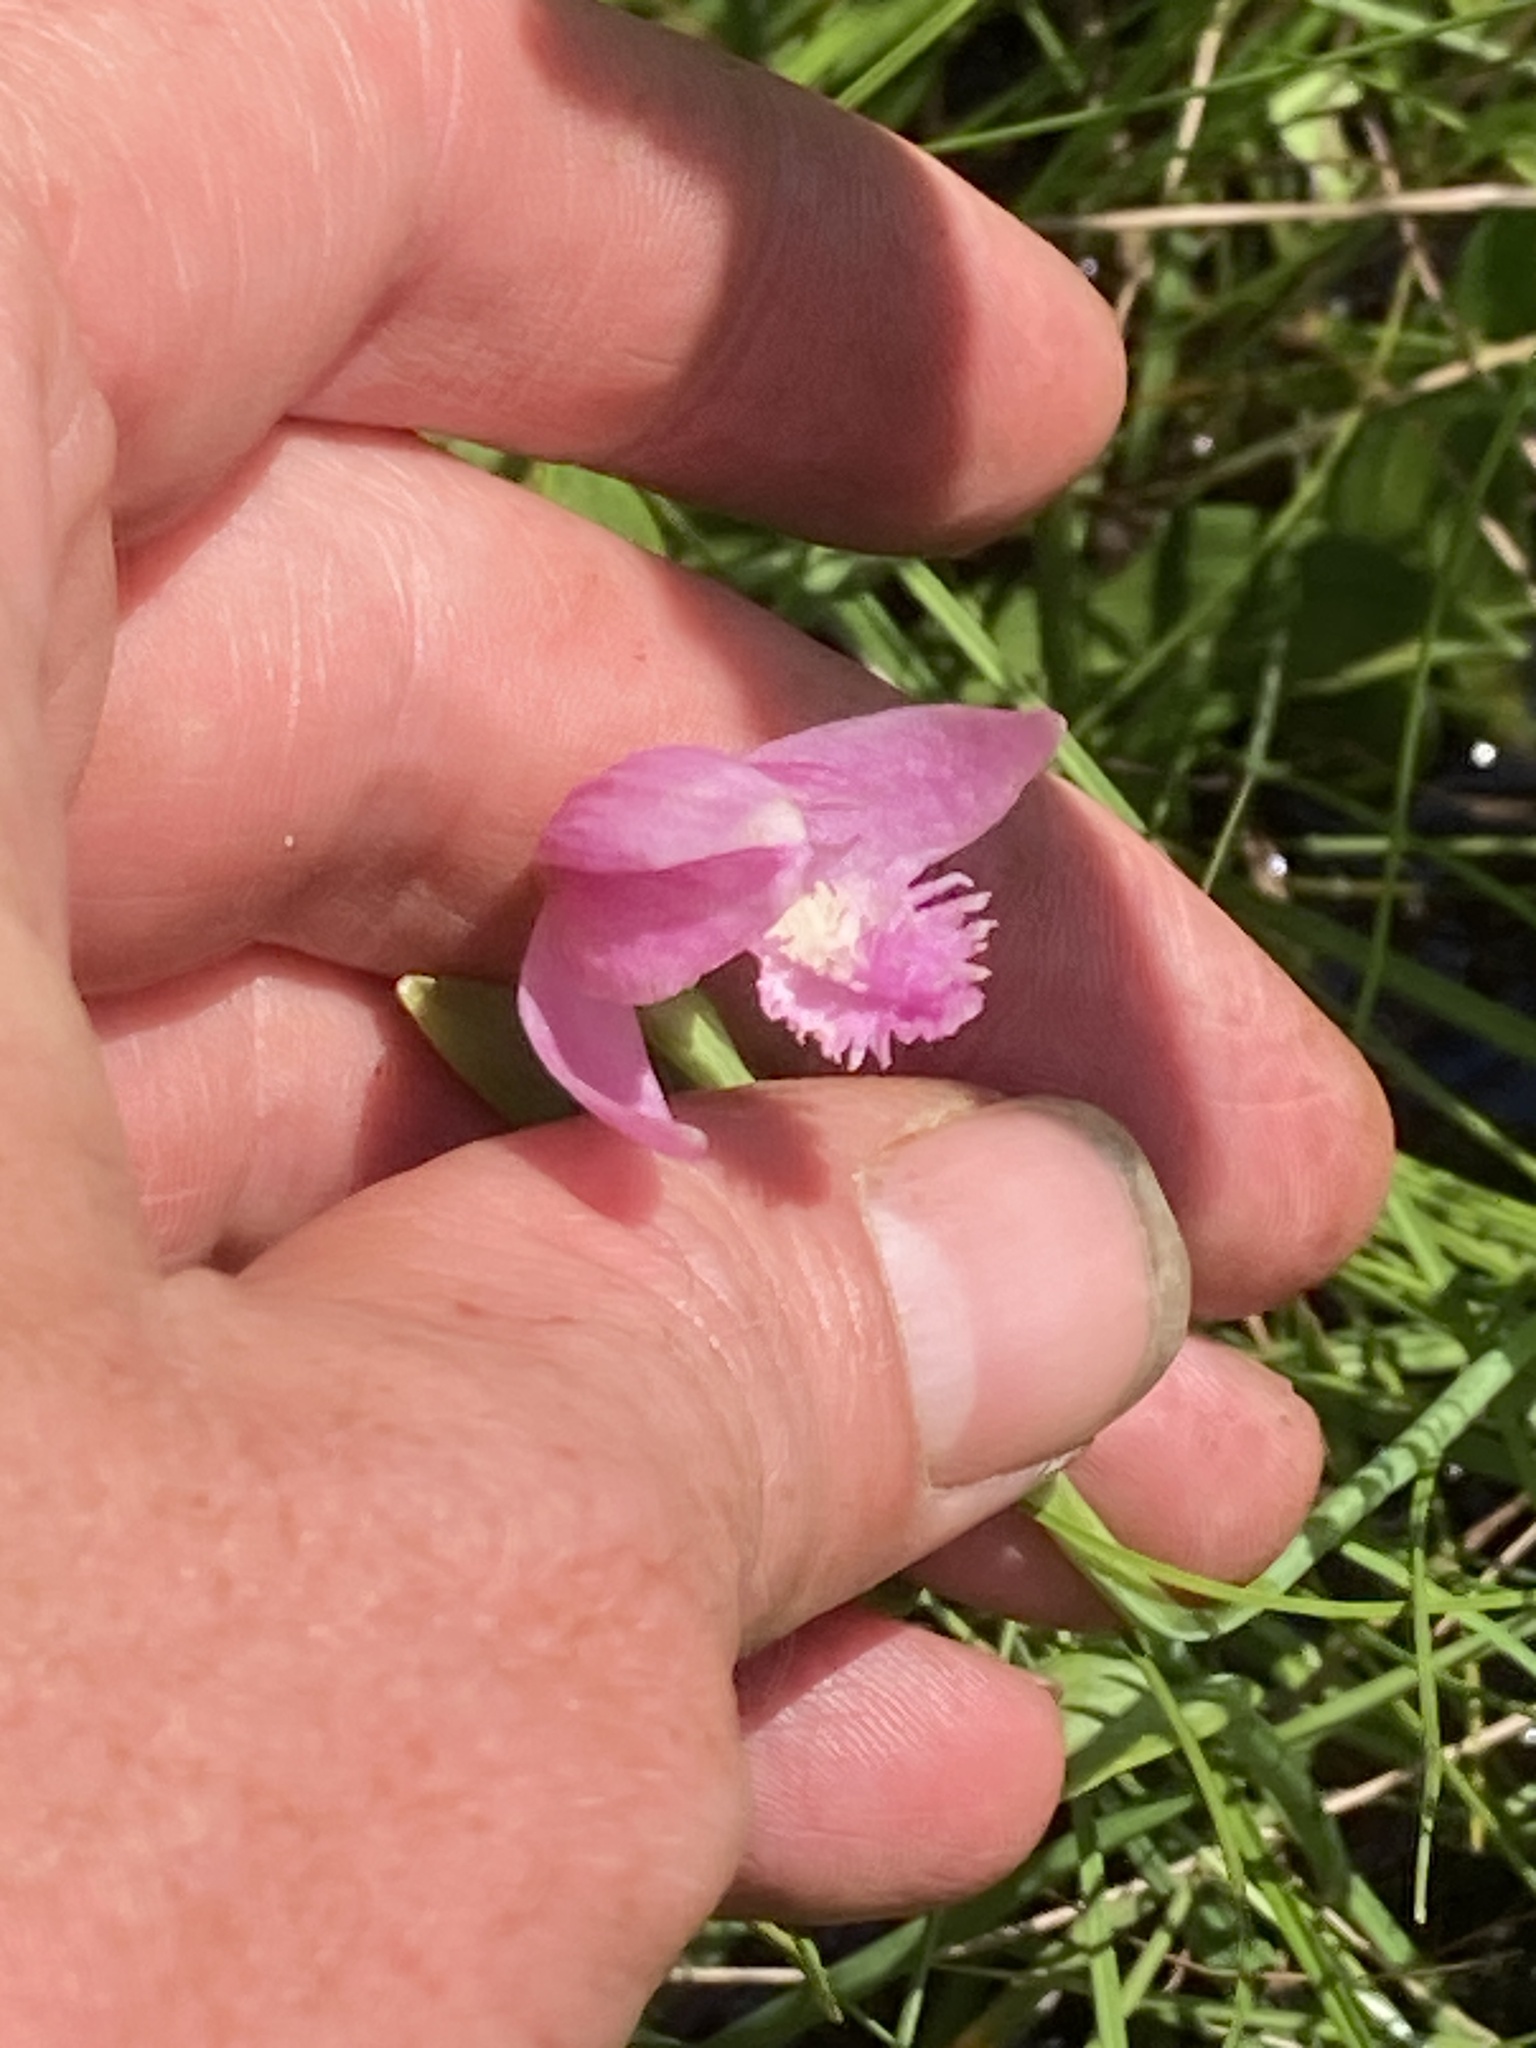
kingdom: Plantae
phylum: Tracheophyta
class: Liliopsida
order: Asparagales
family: Orchidaceae
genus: Pogonia
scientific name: Pogonia ophioglossoides
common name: Rose pogonia
